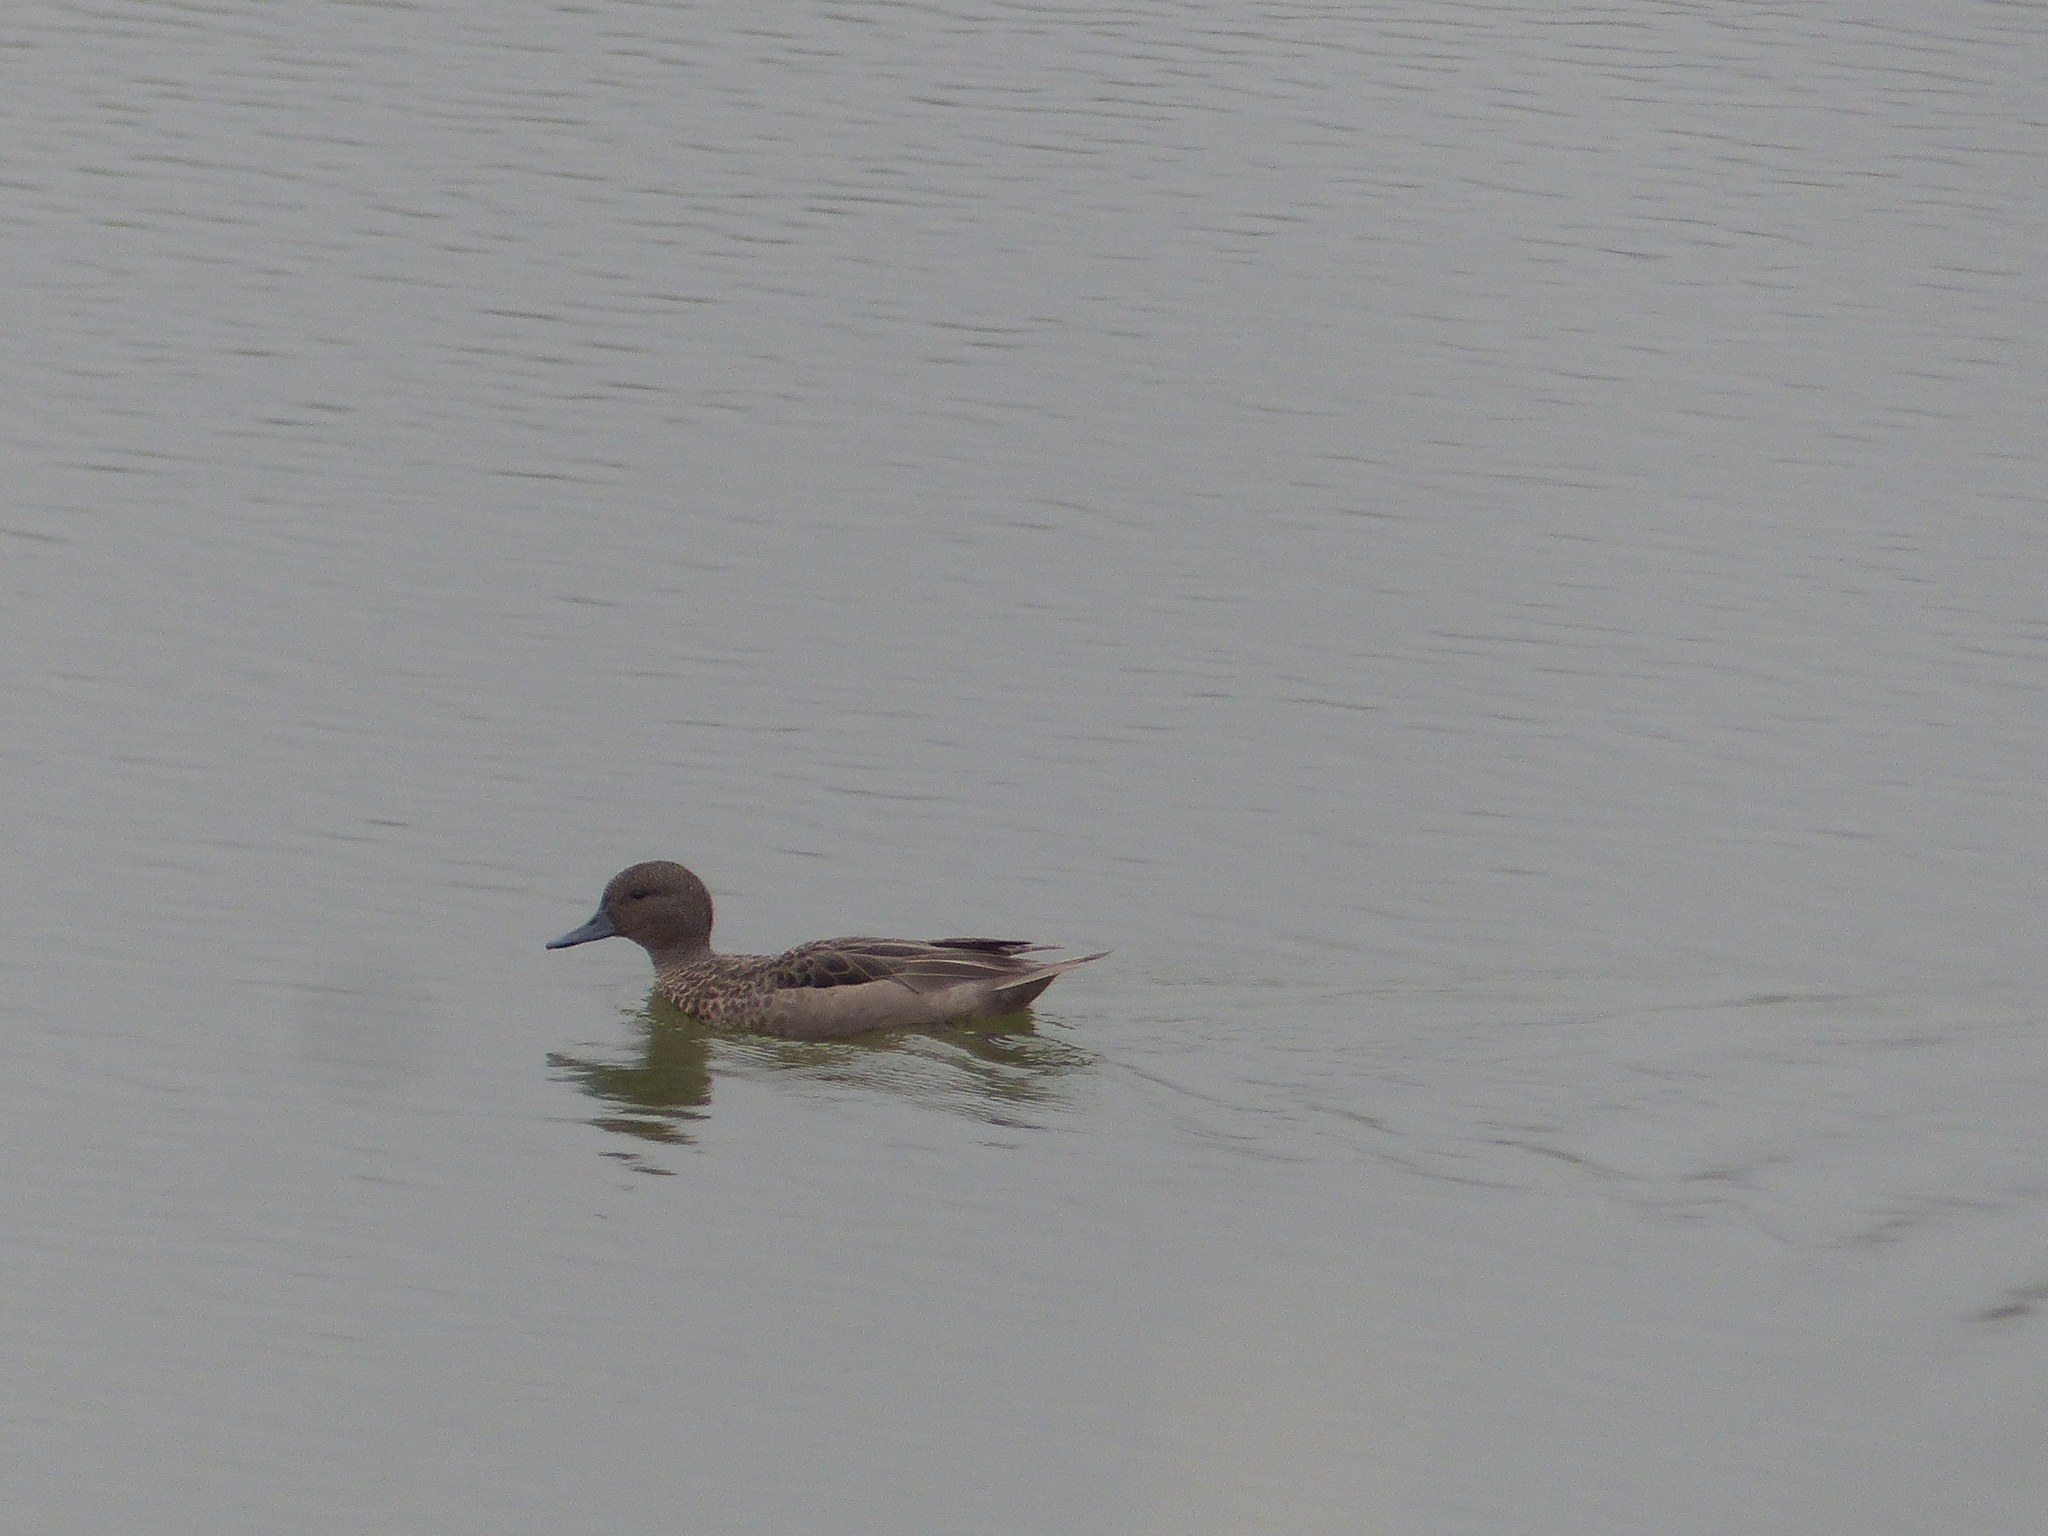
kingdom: Animalia
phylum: Chordata
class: Aves
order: Anseriformes
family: Anatidae
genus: Anas
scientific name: Anas andium
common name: Andean teal
